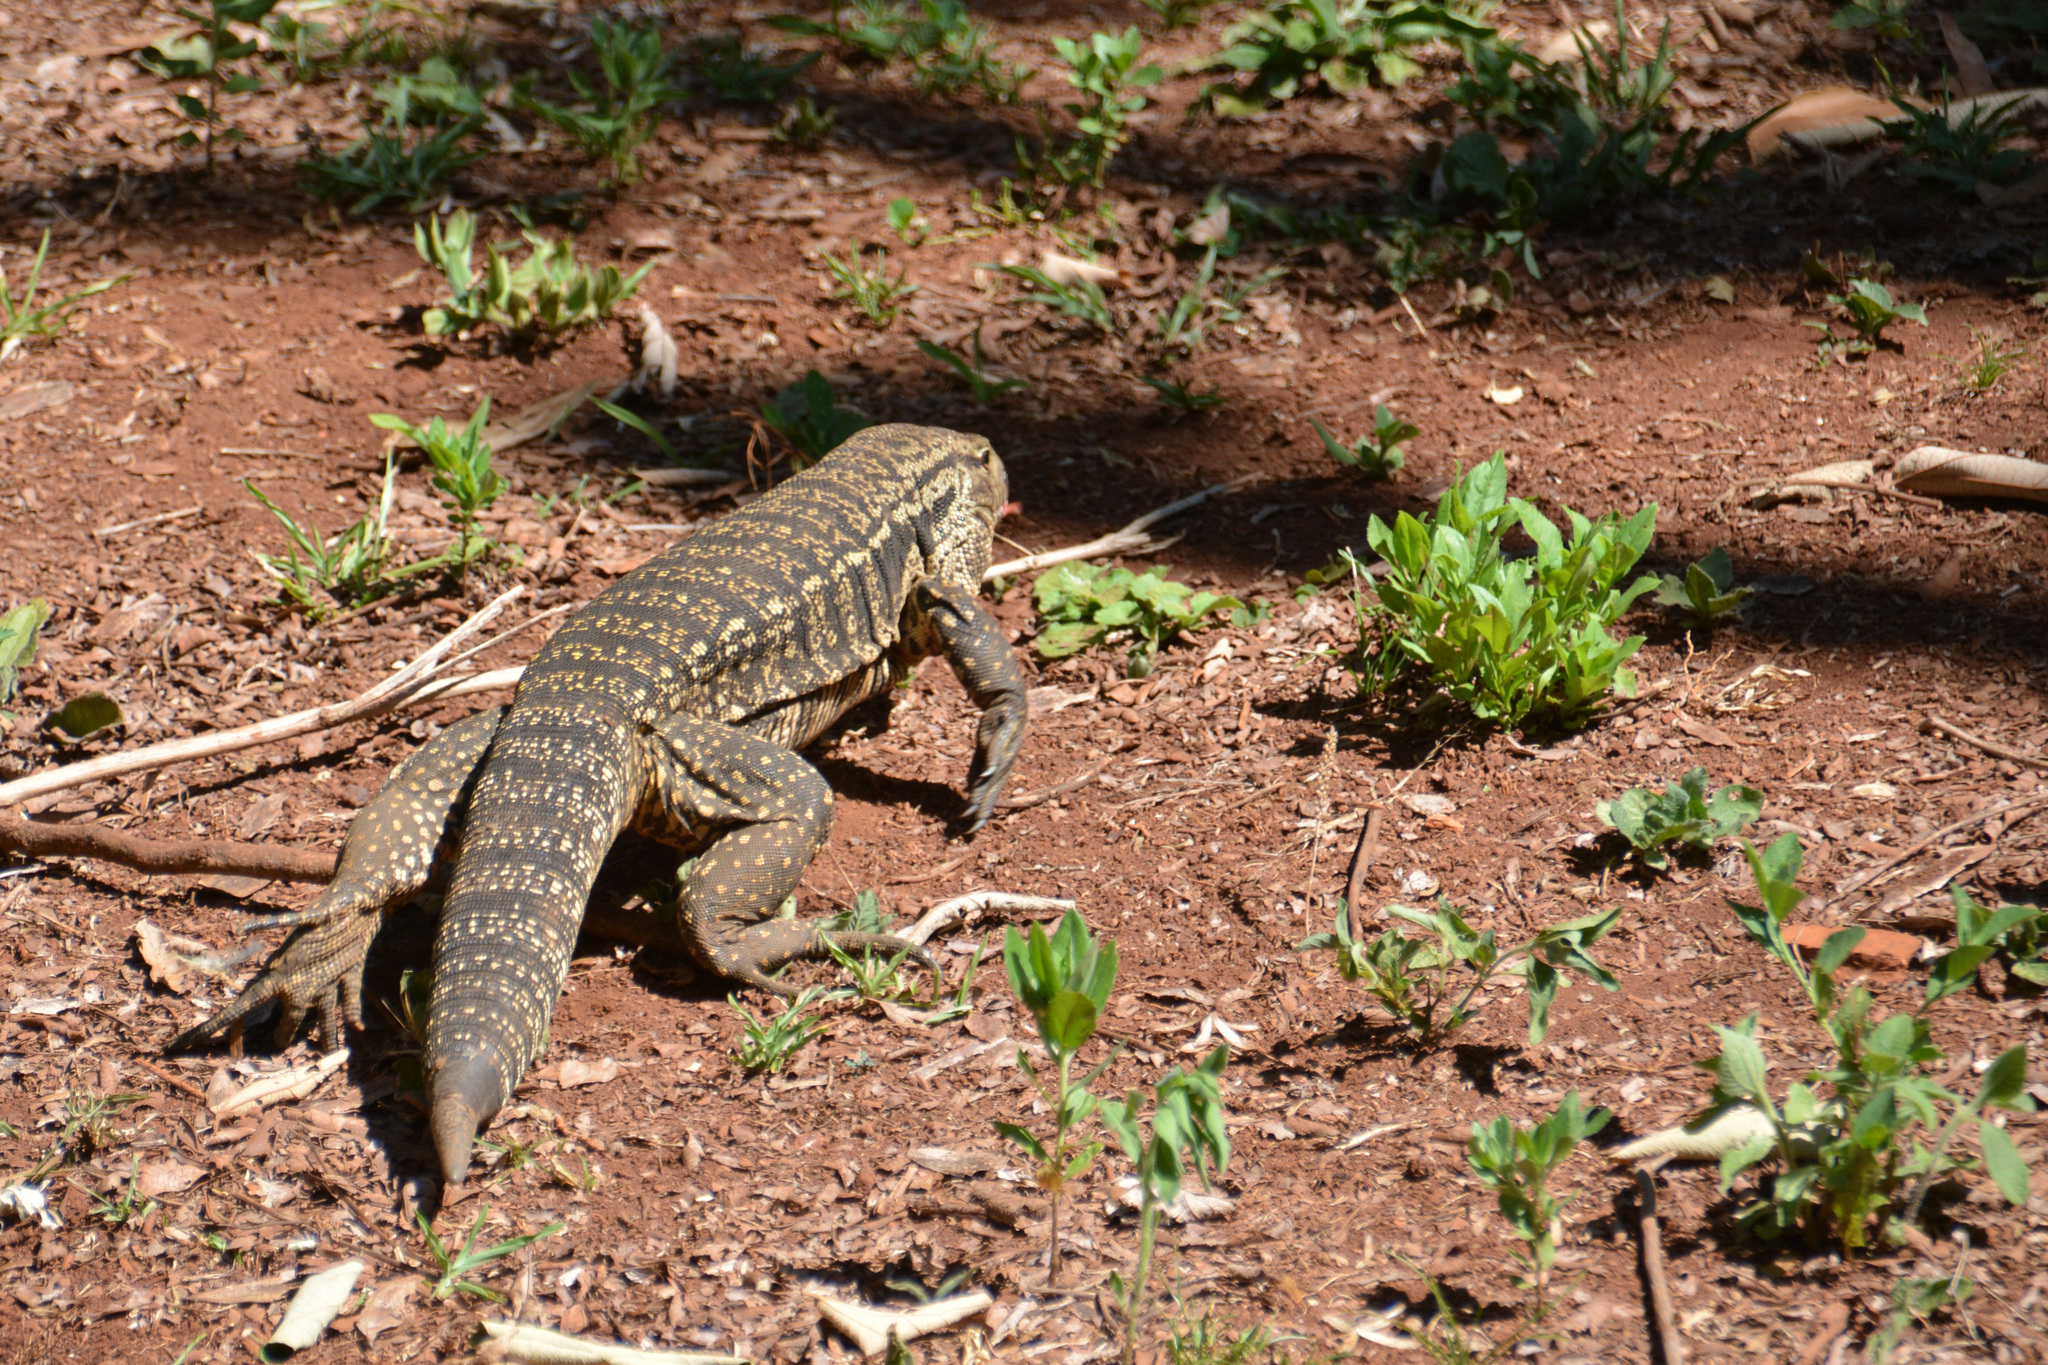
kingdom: Animalia
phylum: Chordata
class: Squamata
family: Teiidae
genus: Salvator
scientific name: Salvator merianae
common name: Argentine black and white tegu
